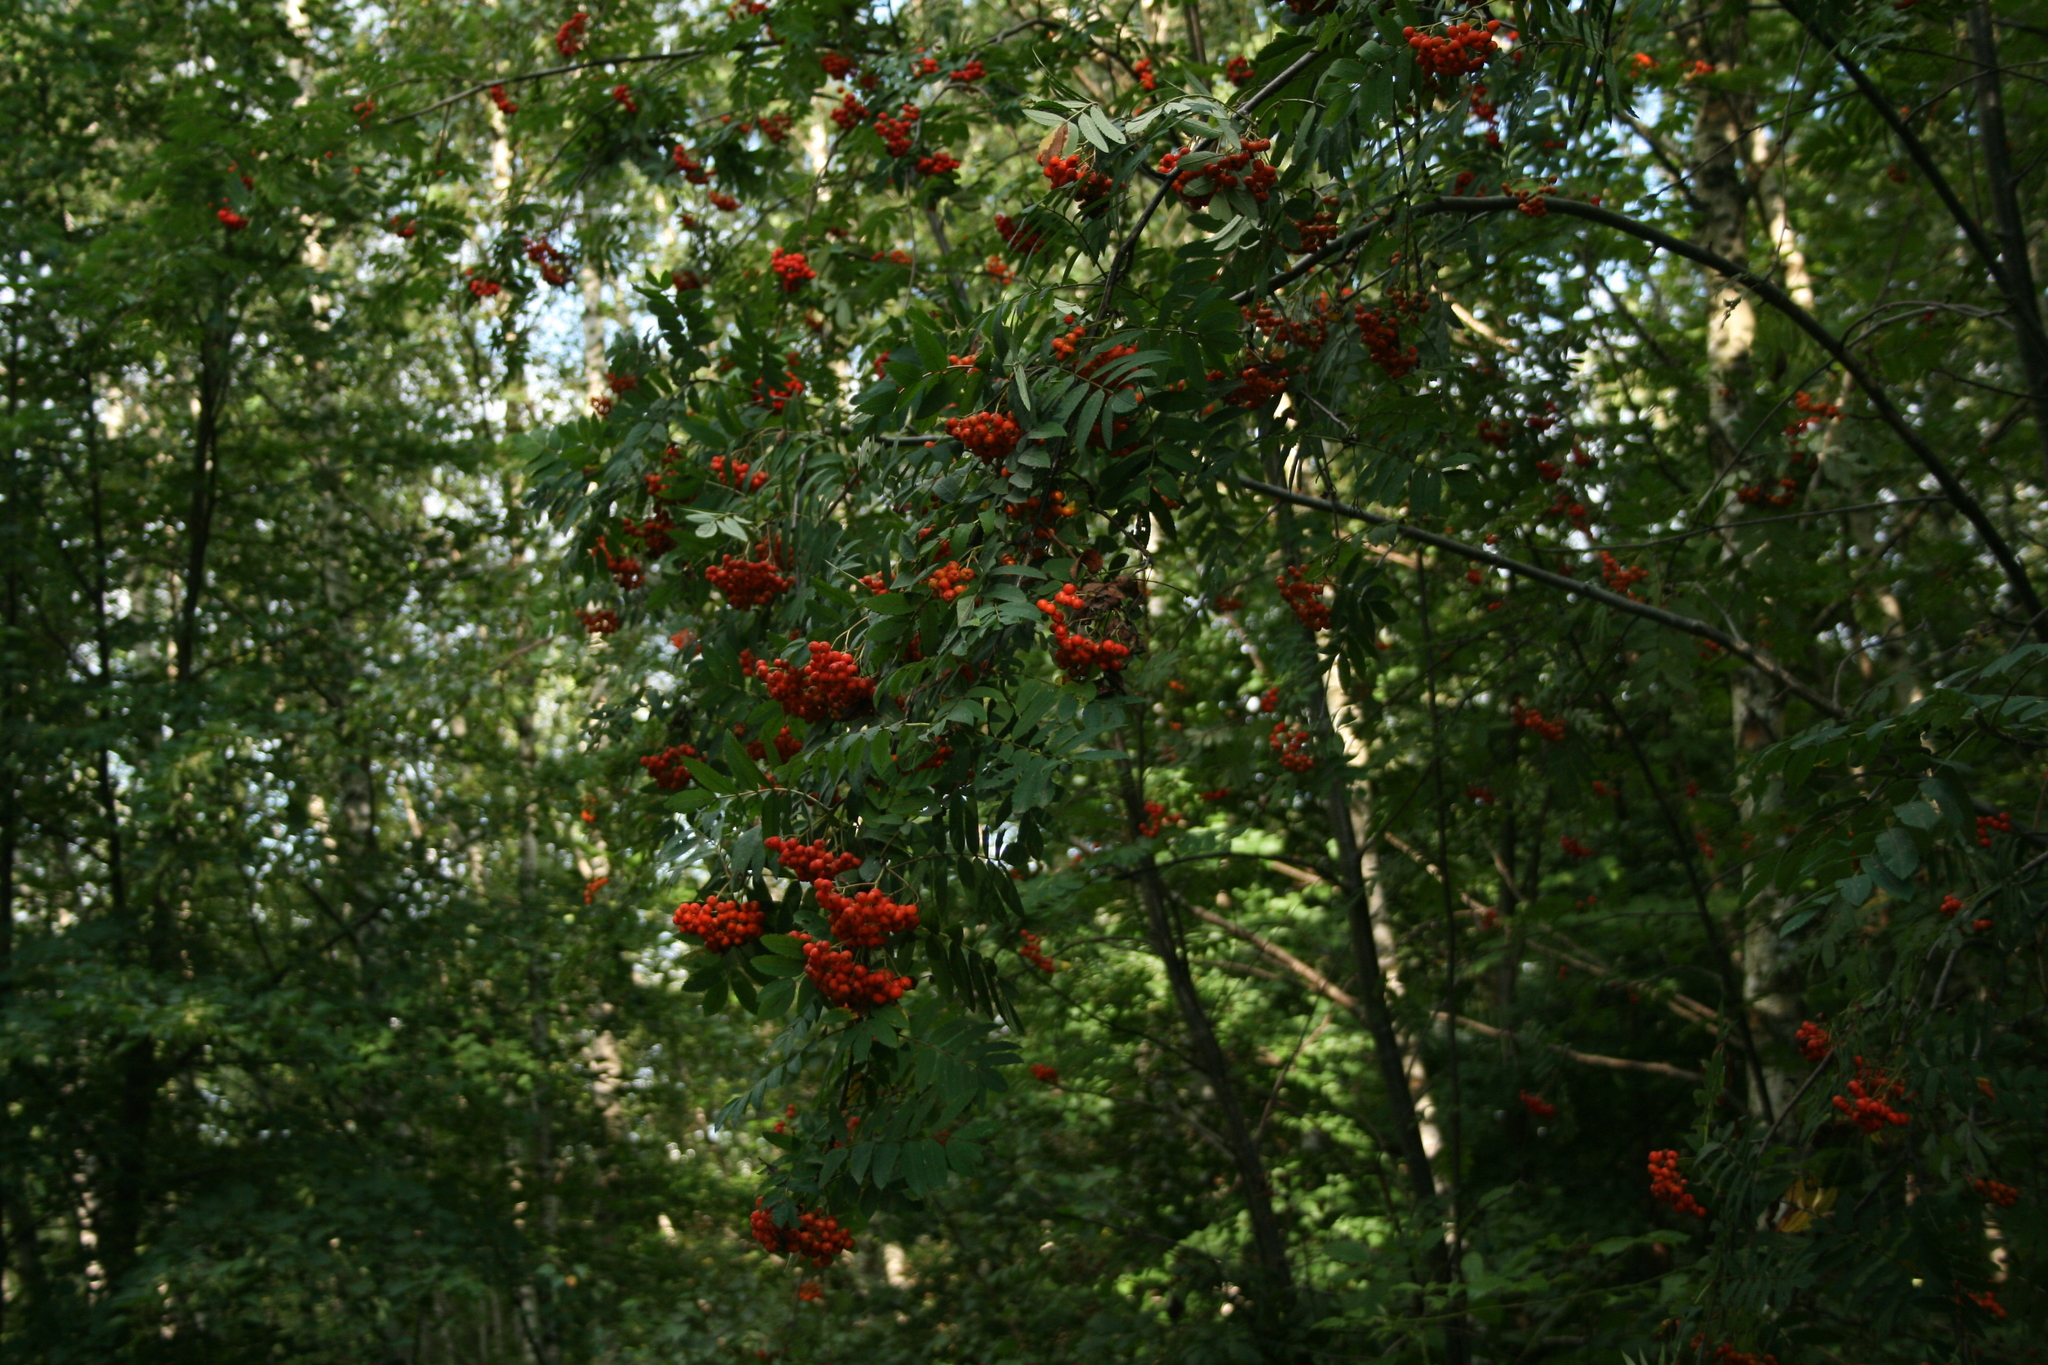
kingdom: Plantae
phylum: Tracheophyta
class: Magnoliopsida
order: Rosales
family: Rosaceae
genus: Sorbus
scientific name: Sorbus aucuparia
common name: Rowan
